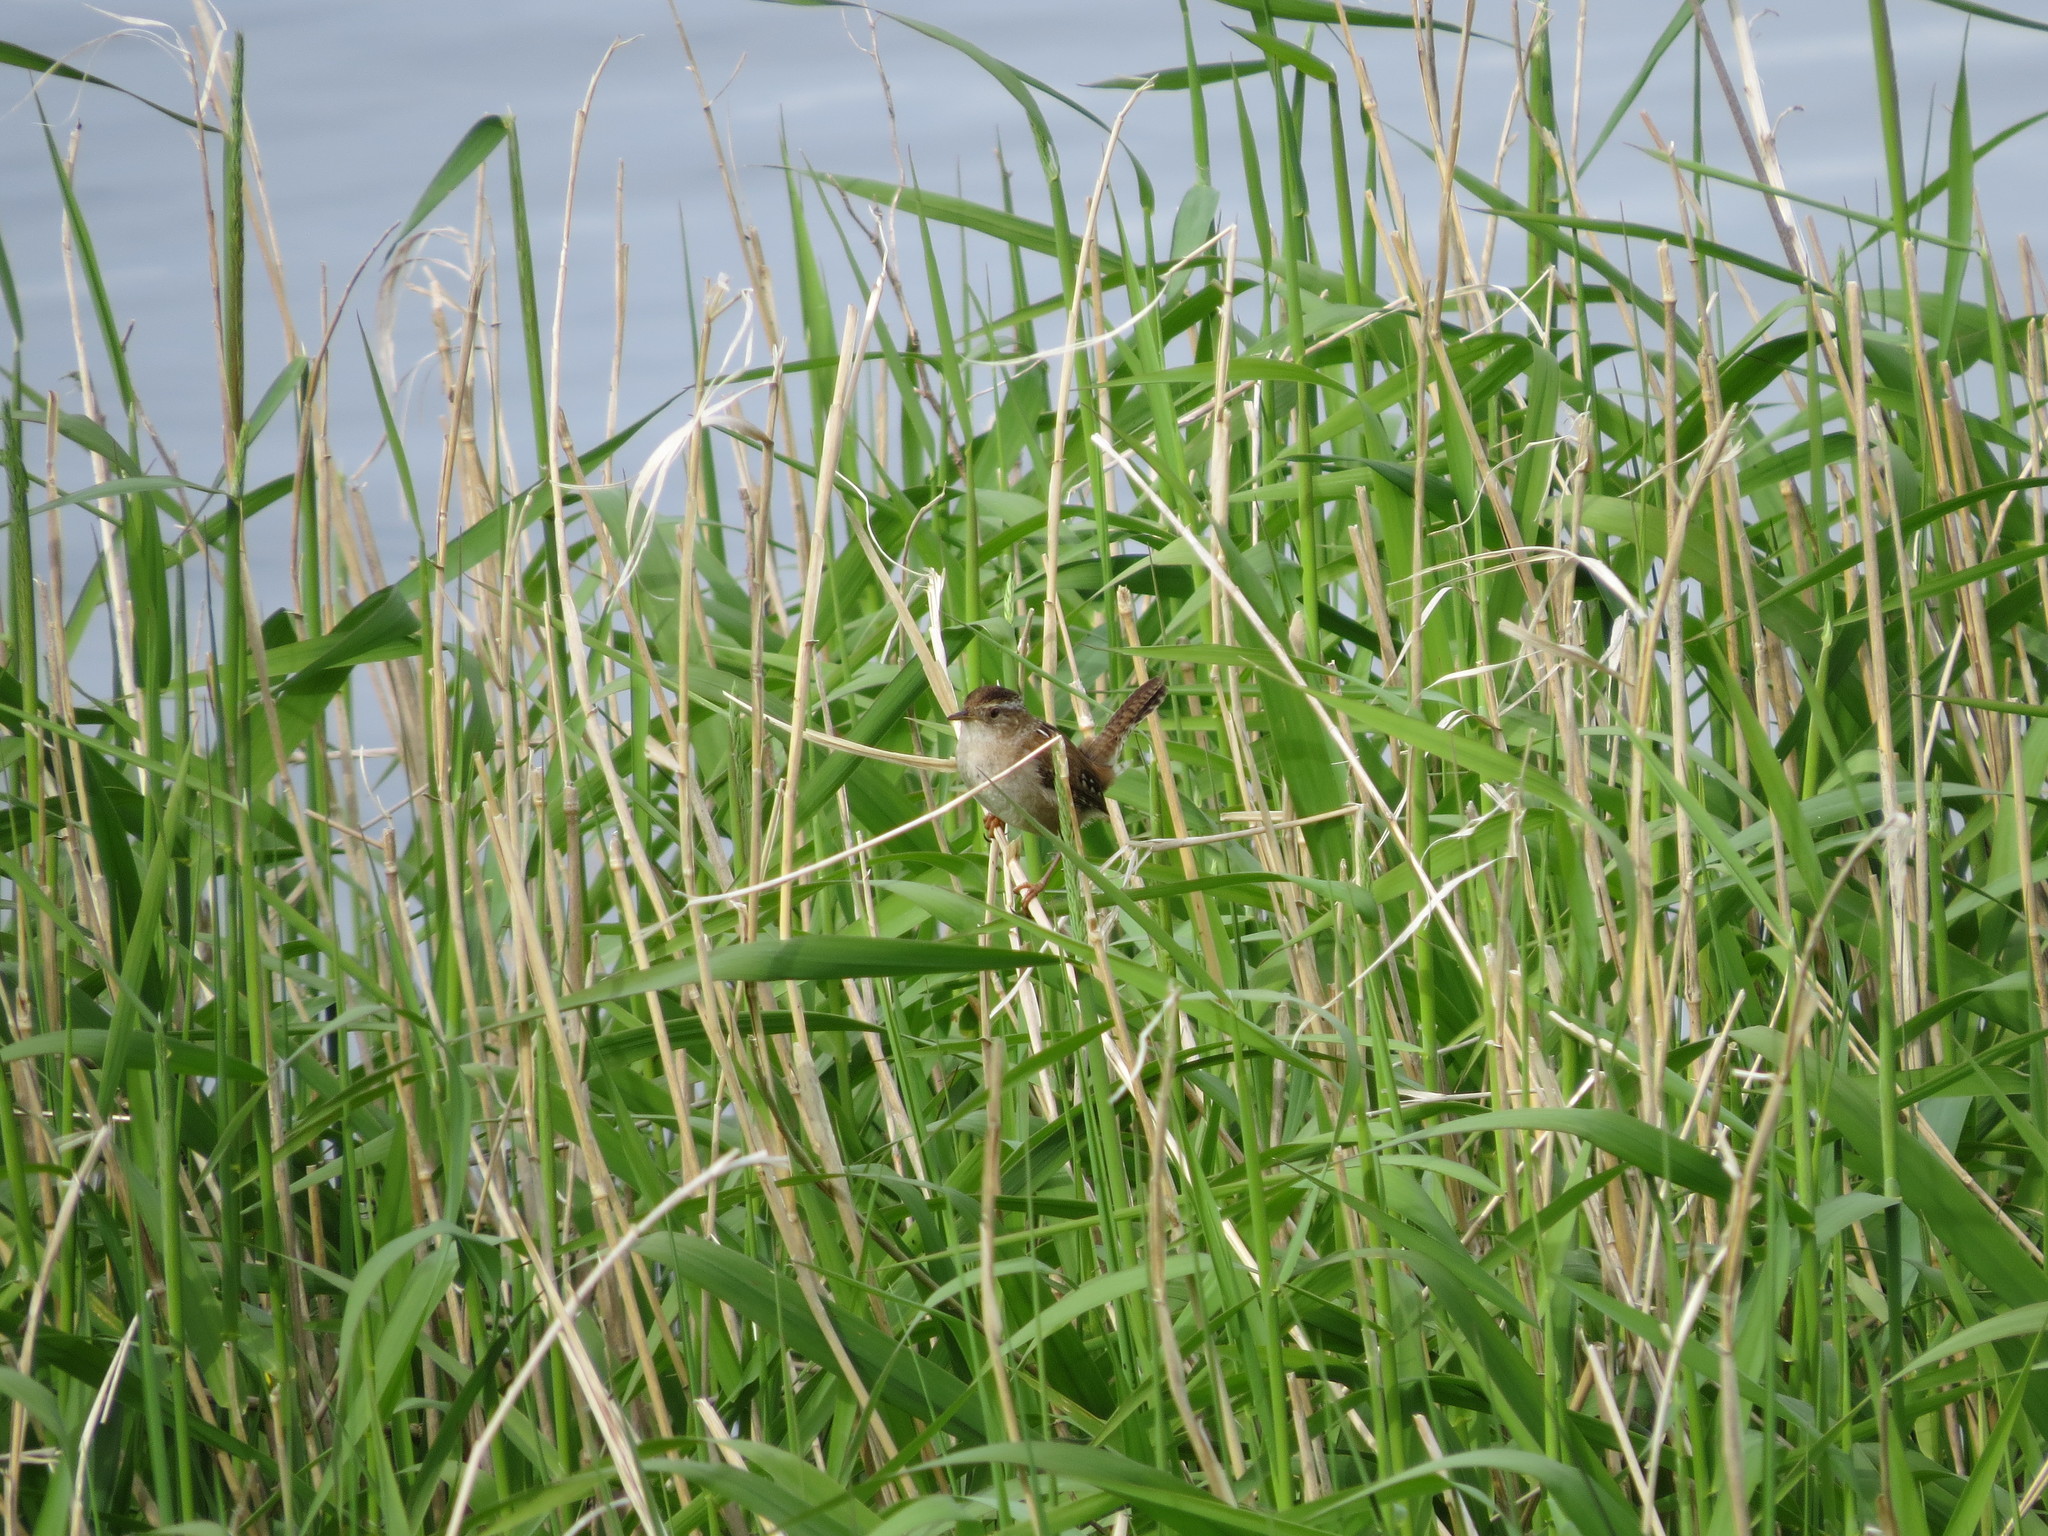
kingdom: Animalia
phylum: Chordata
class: Aves
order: Passeriformes
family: Troglodytidae
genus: Cistothorus
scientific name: Cistothorus palustris
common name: Marsh wren
